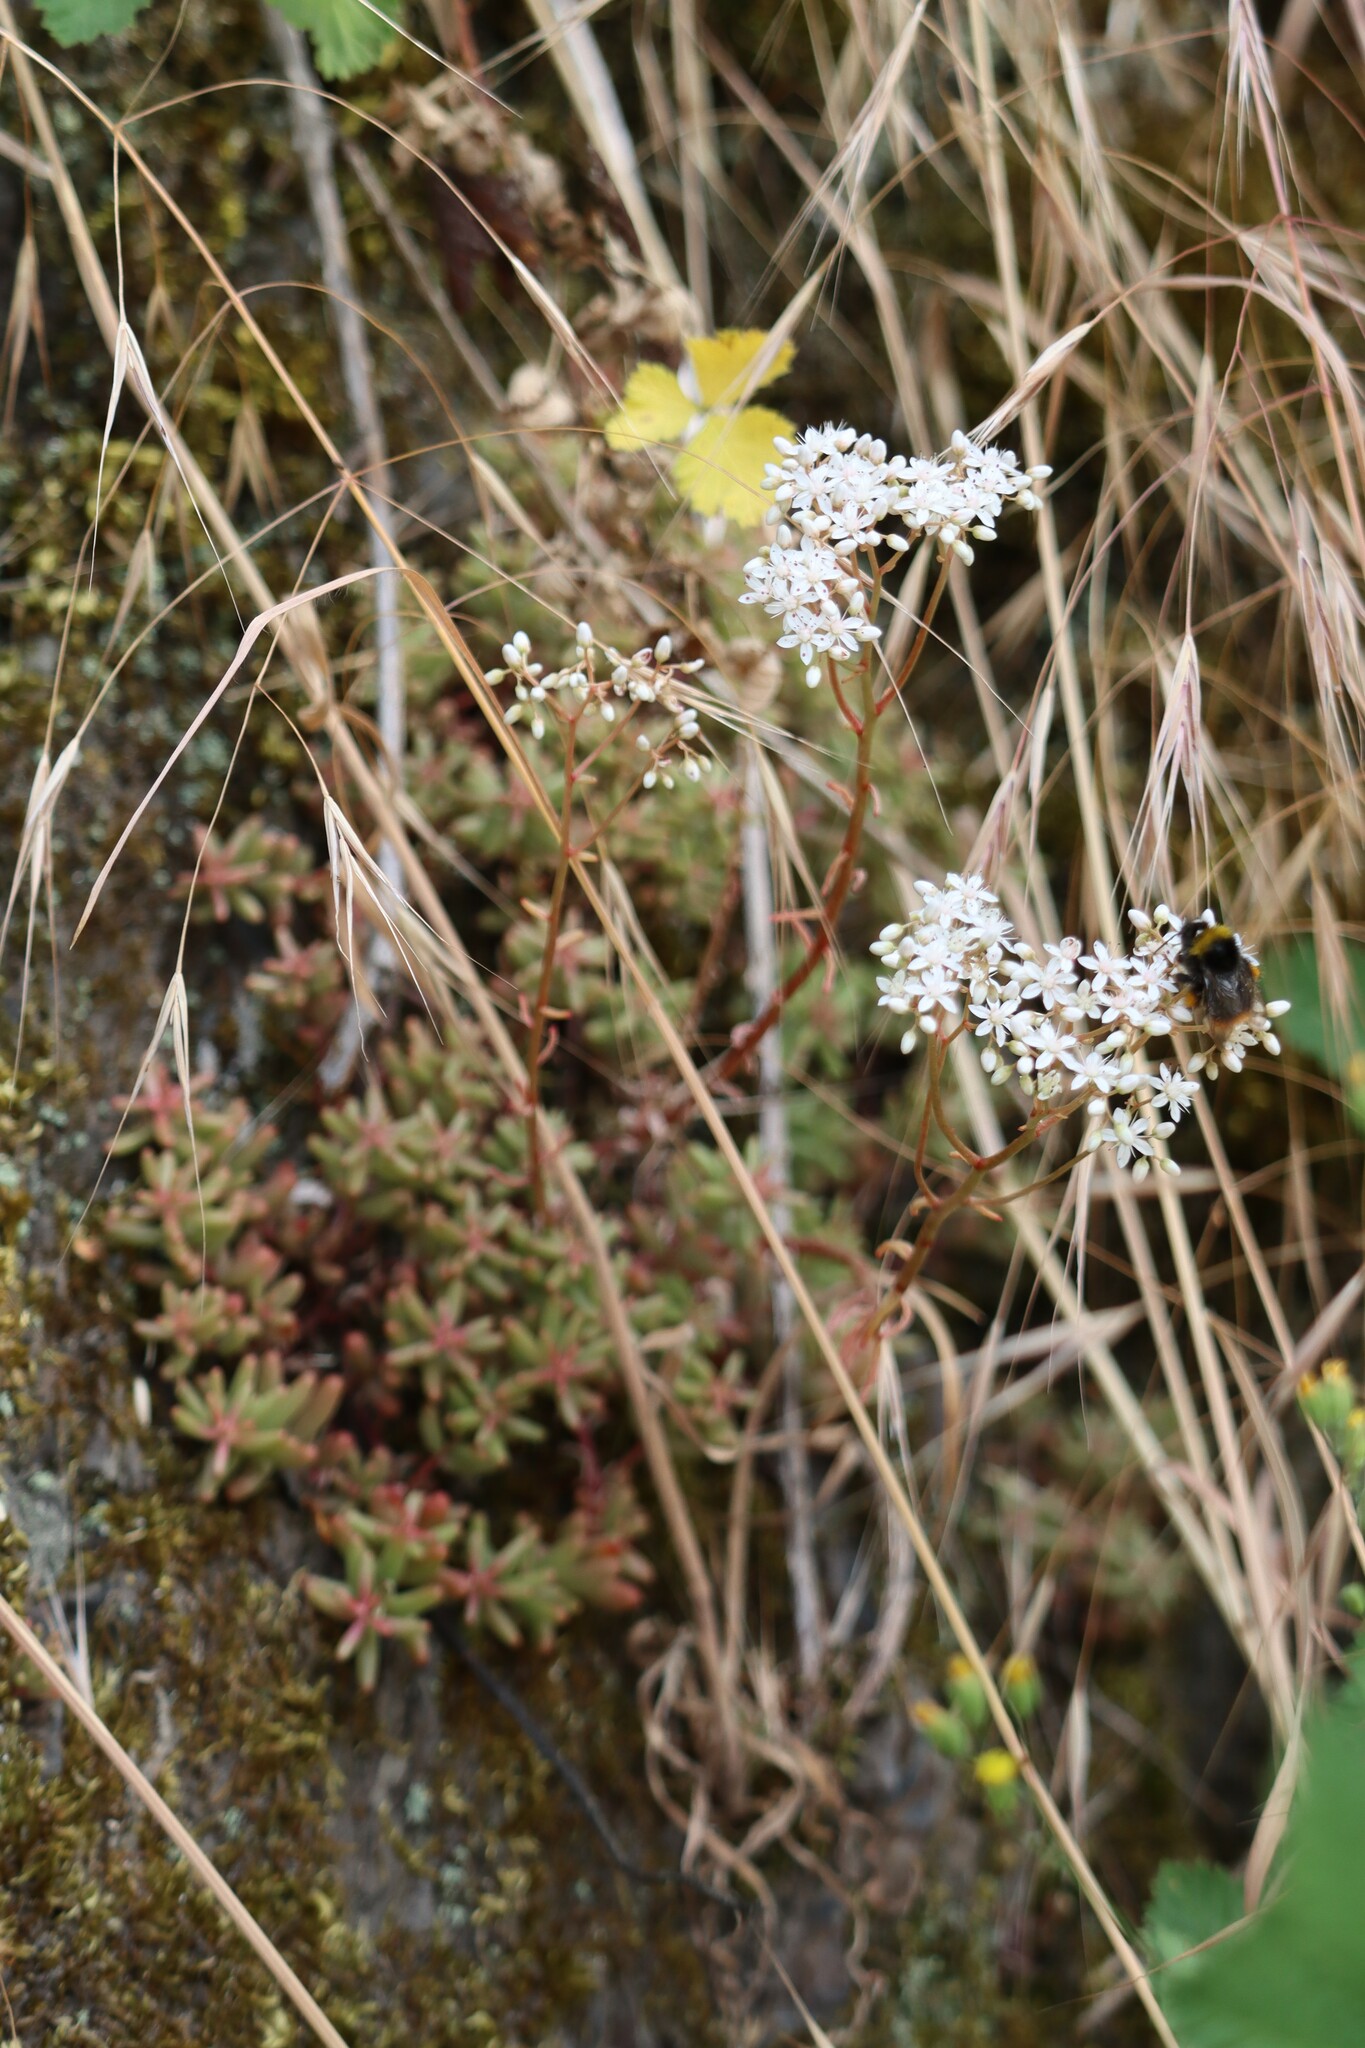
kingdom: Plantae
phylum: Tracheophyta
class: Magnoliopsida
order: Saxifragales
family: Crassulaceae
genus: Sedum
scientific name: Sedum album
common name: White stonecrop
